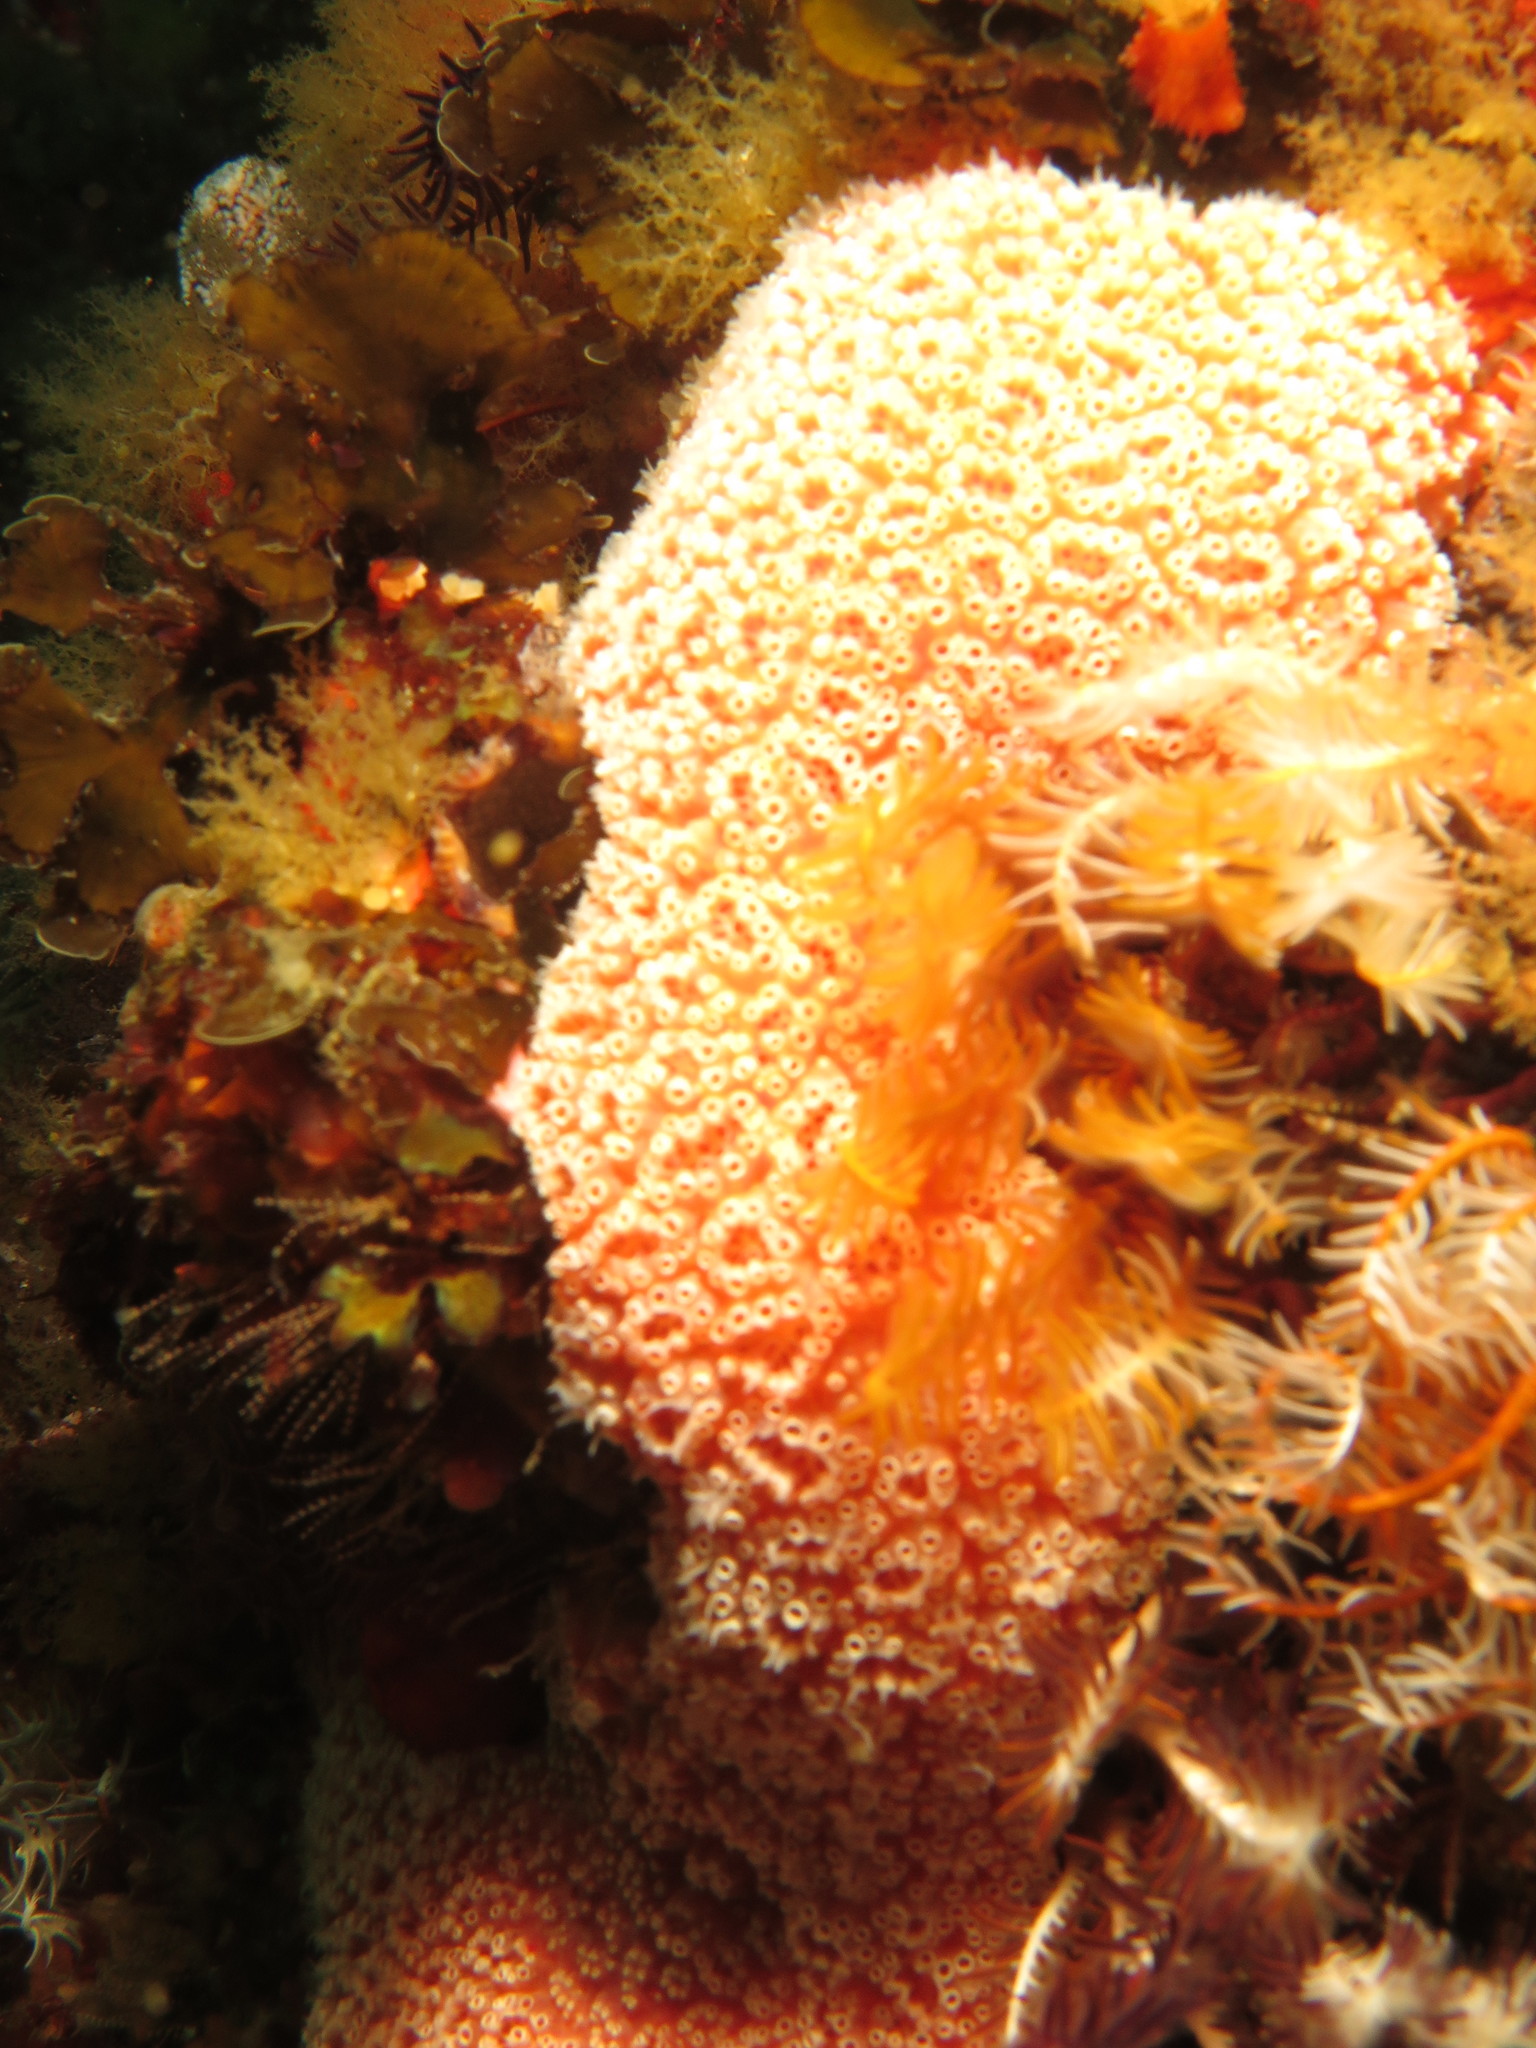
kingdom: Animalia
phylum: Chordata
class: Ascidiacea
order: Stolidobranchia
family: Styelidae
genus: Botryllus
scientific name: Botryllus closionis
